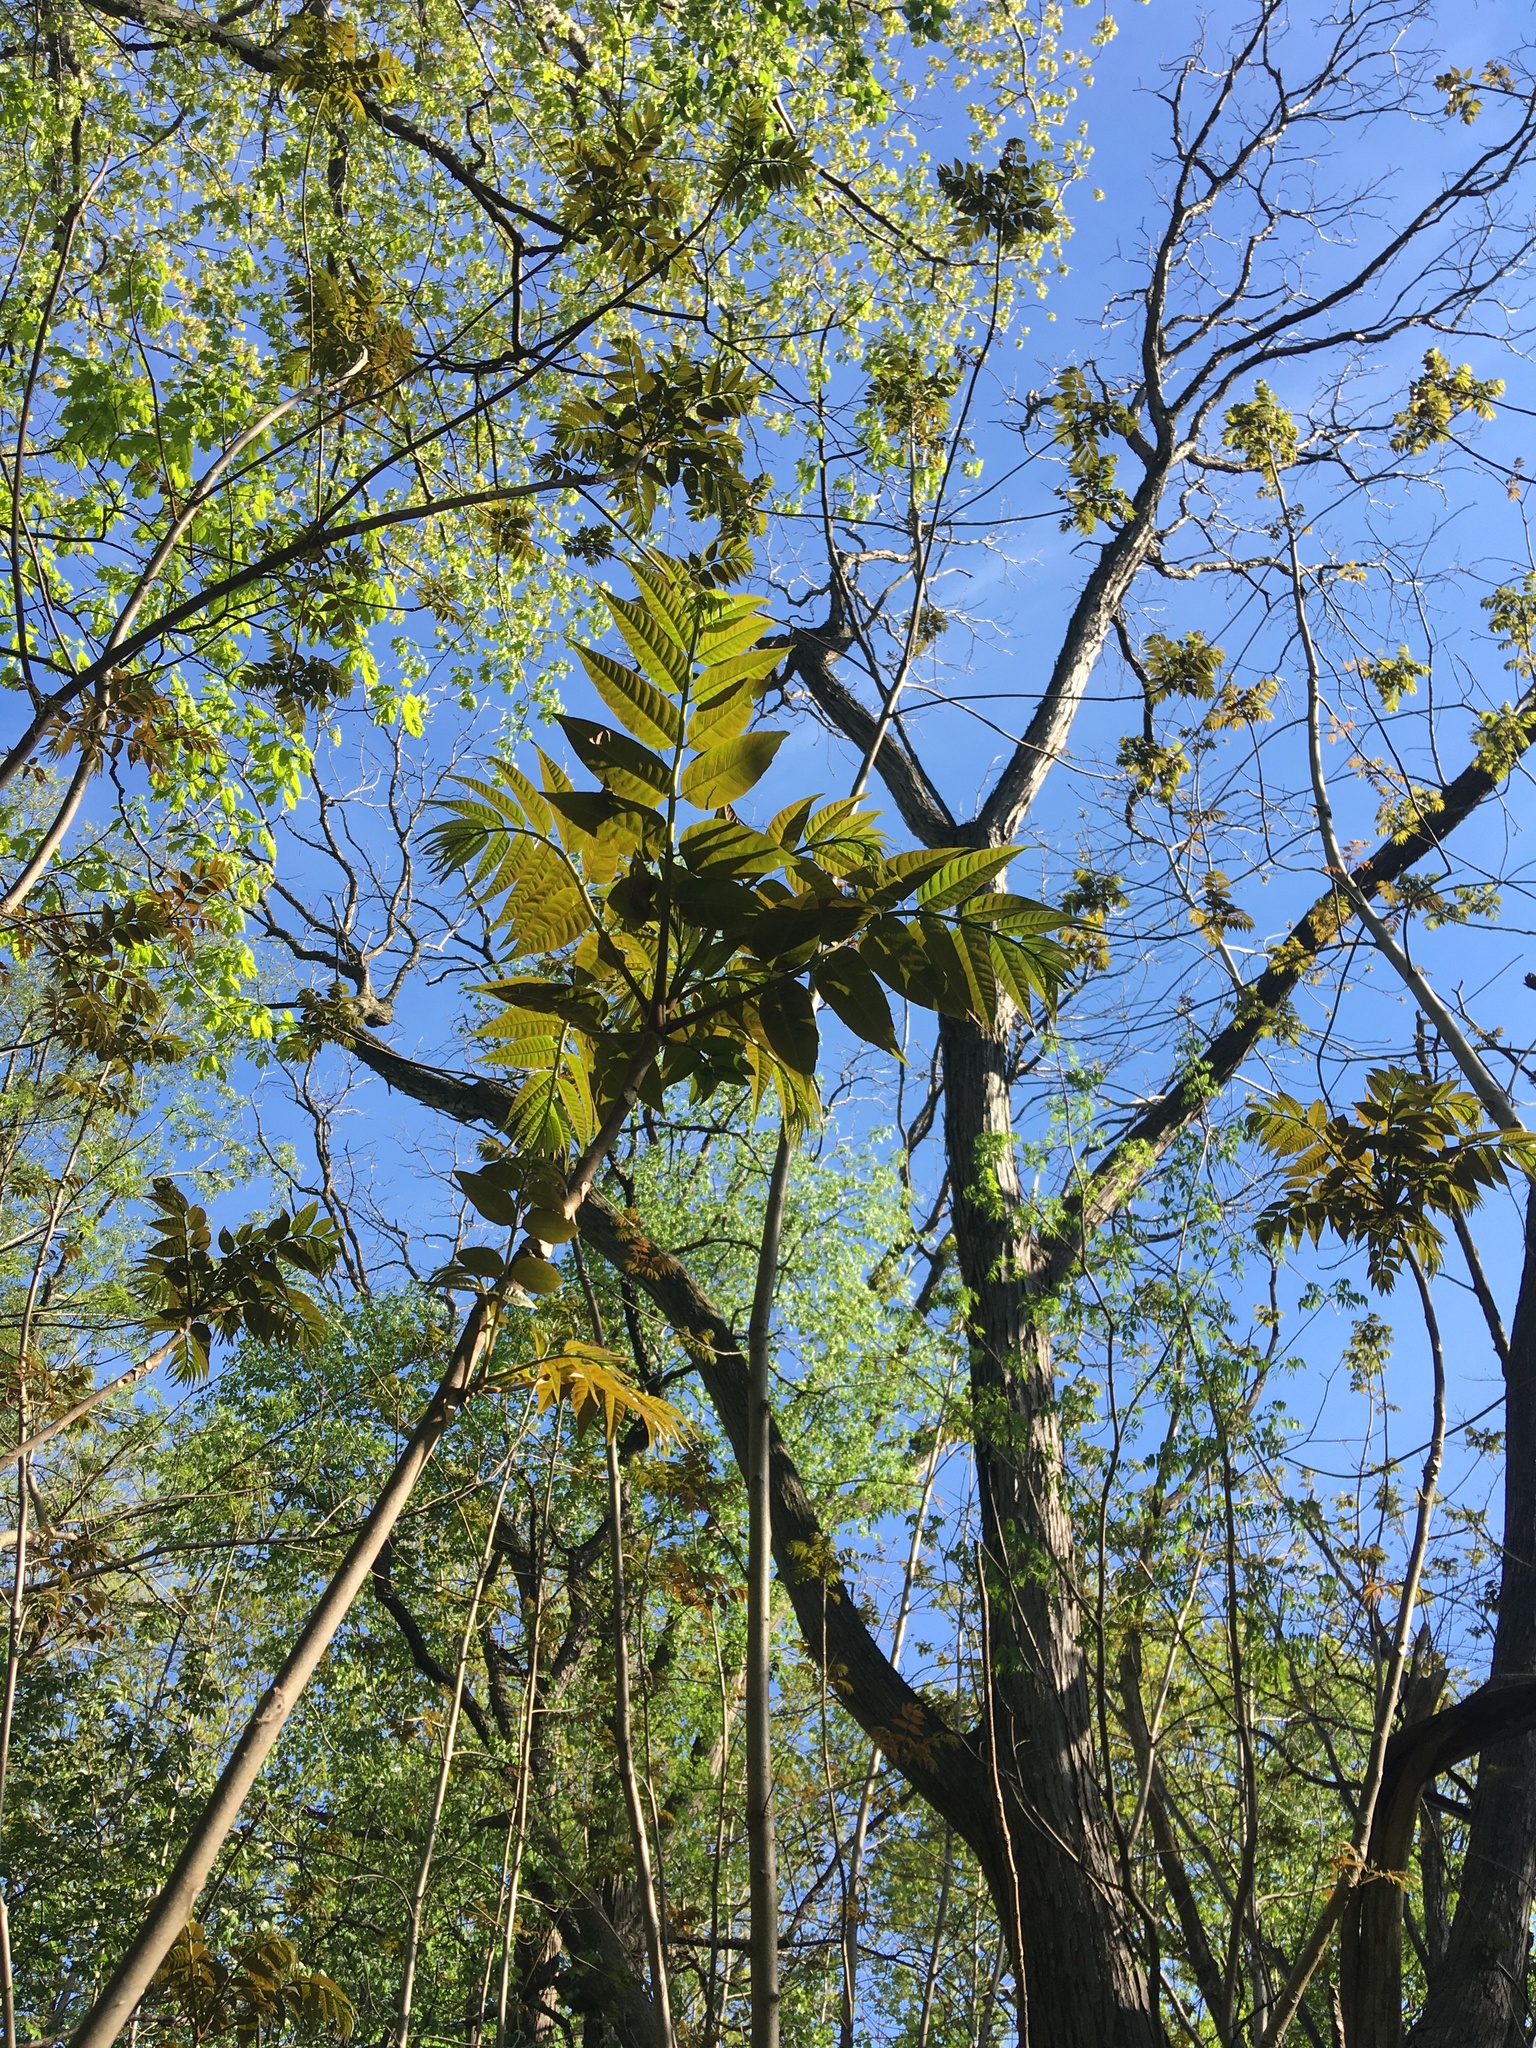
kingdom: Plantae
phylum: Tracheophyta
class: Magnoliopsida
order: Sapindales
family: Meliaceae
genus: Toona
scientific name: Toona sinensis
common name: Red toon
